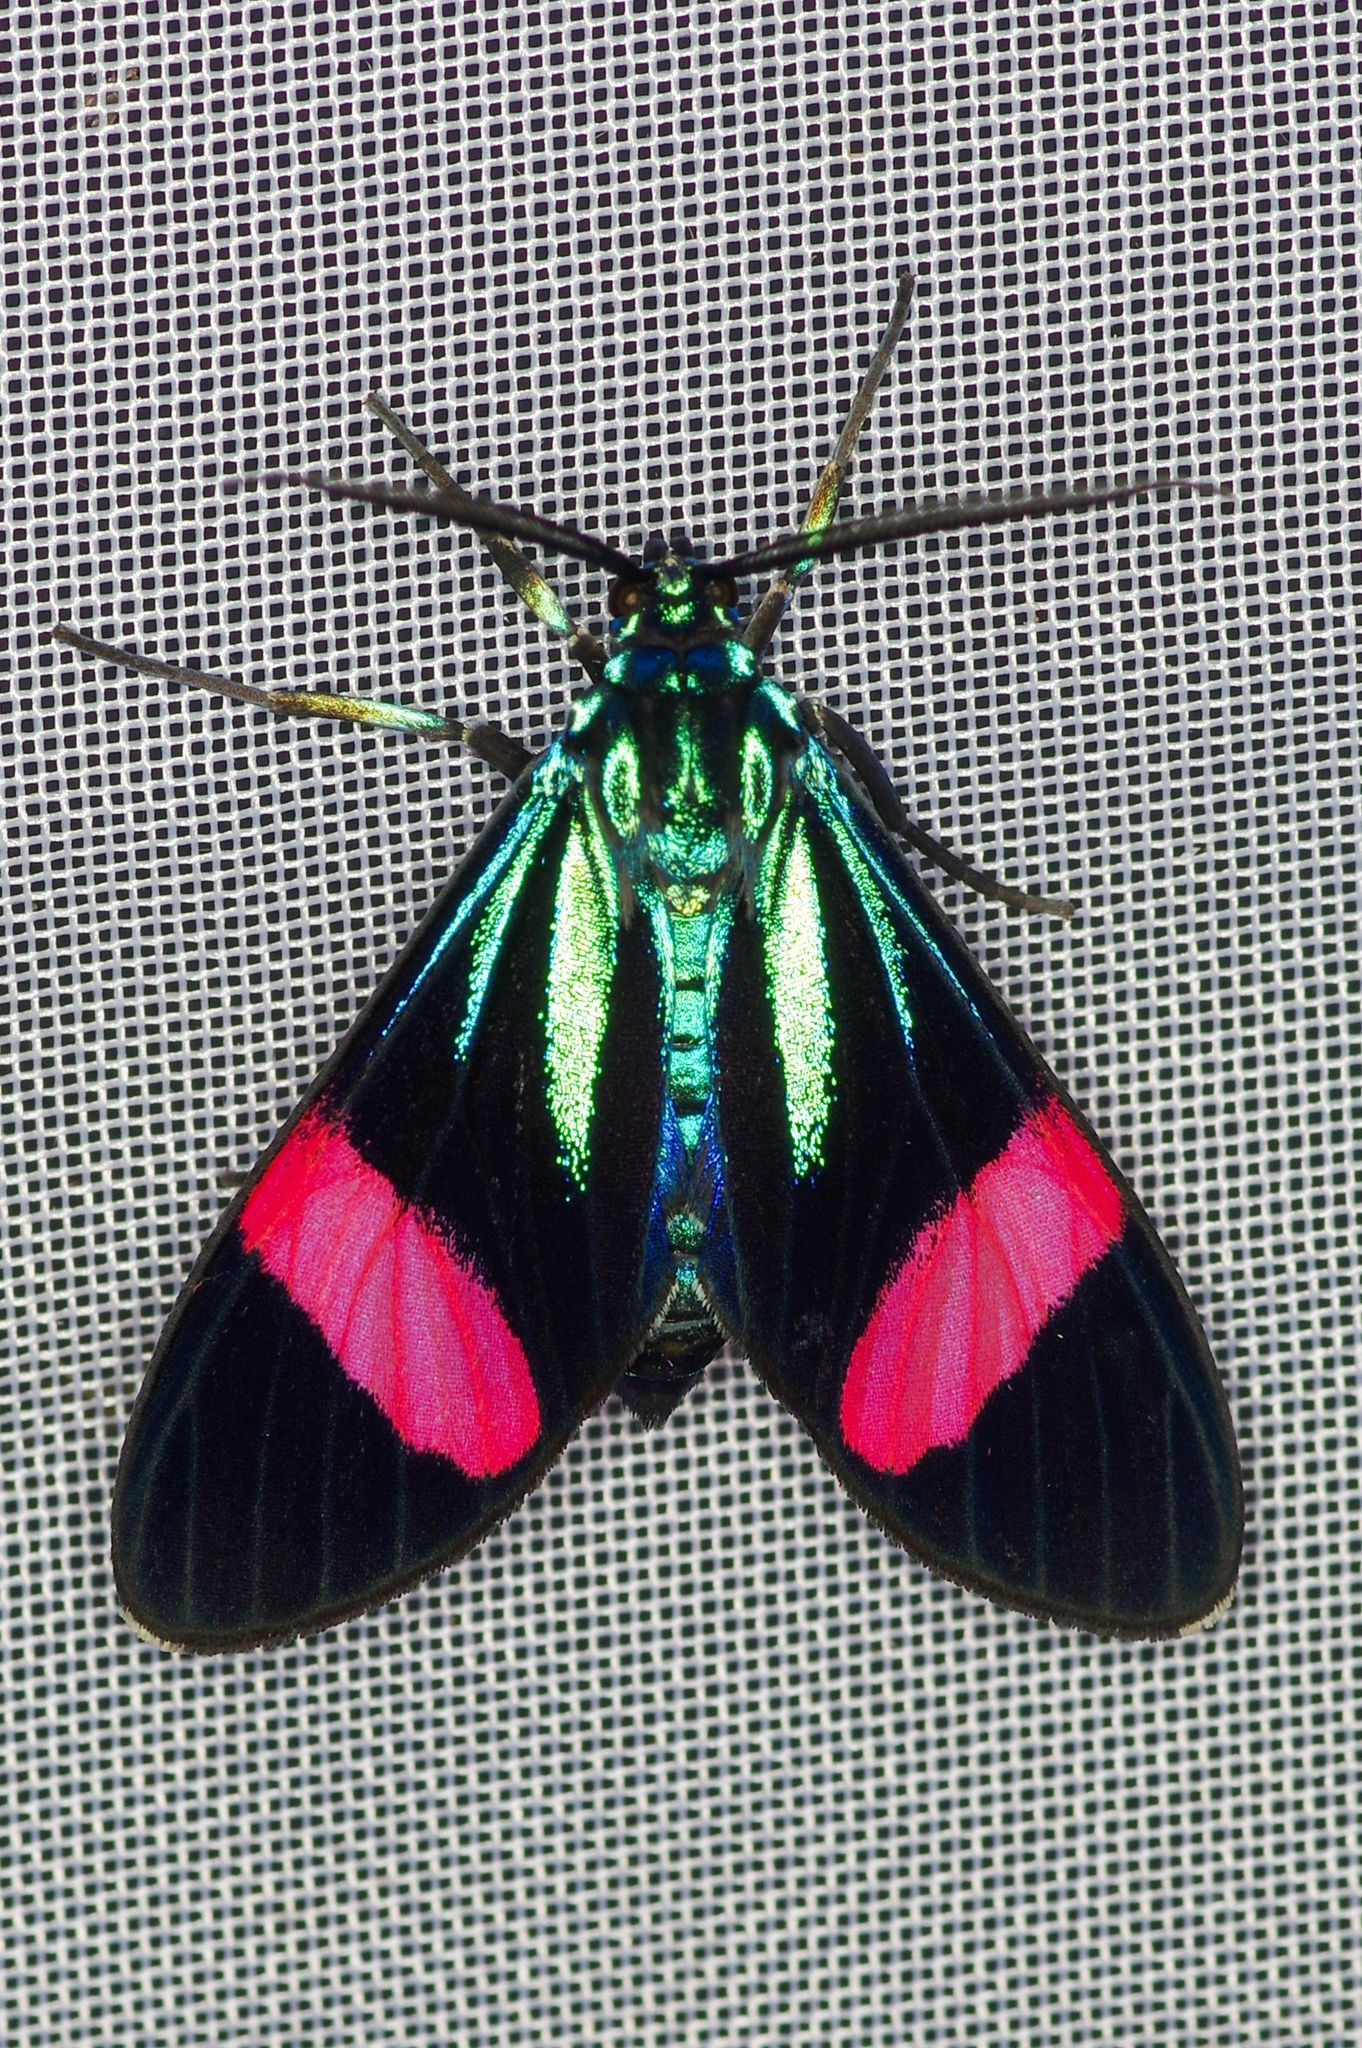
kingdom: Animalia
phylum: Arthropoda
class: Insecta
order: Lepidoptera
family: Erebidae
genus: Cyanopepla
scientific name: Cyanopepla julia
